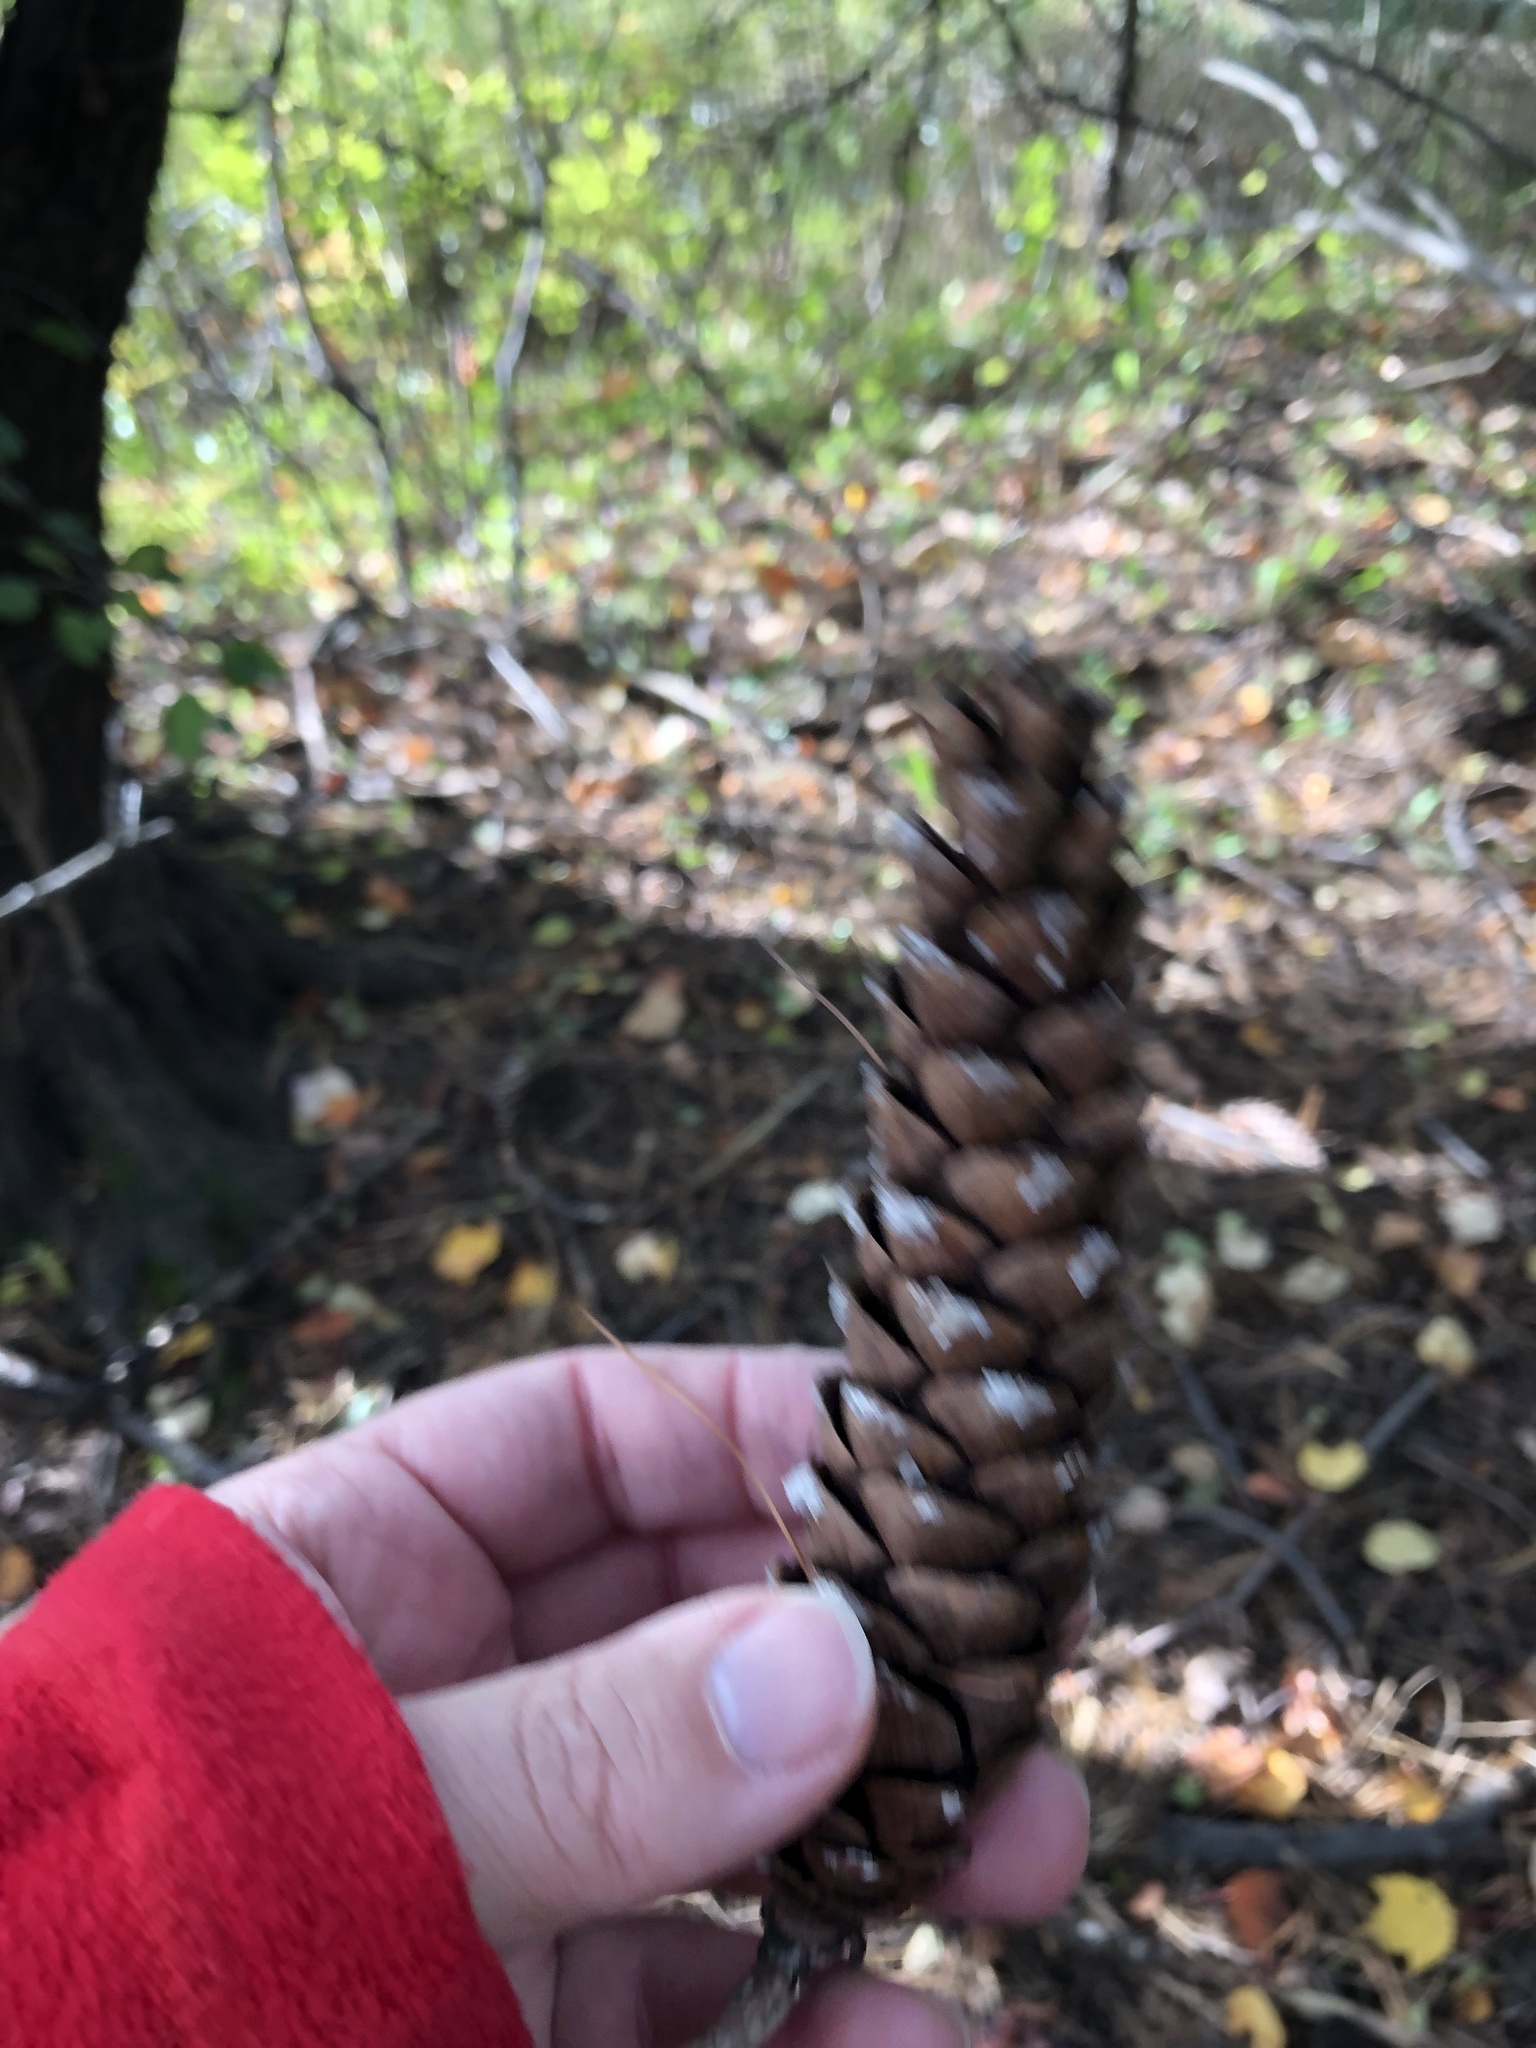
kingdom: Plantae
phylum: Tracheophyta
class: Pinopsida
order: Pinales
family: Pinaceae
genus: Pinus
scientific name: Pinus strobus
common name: Weymouth pine
